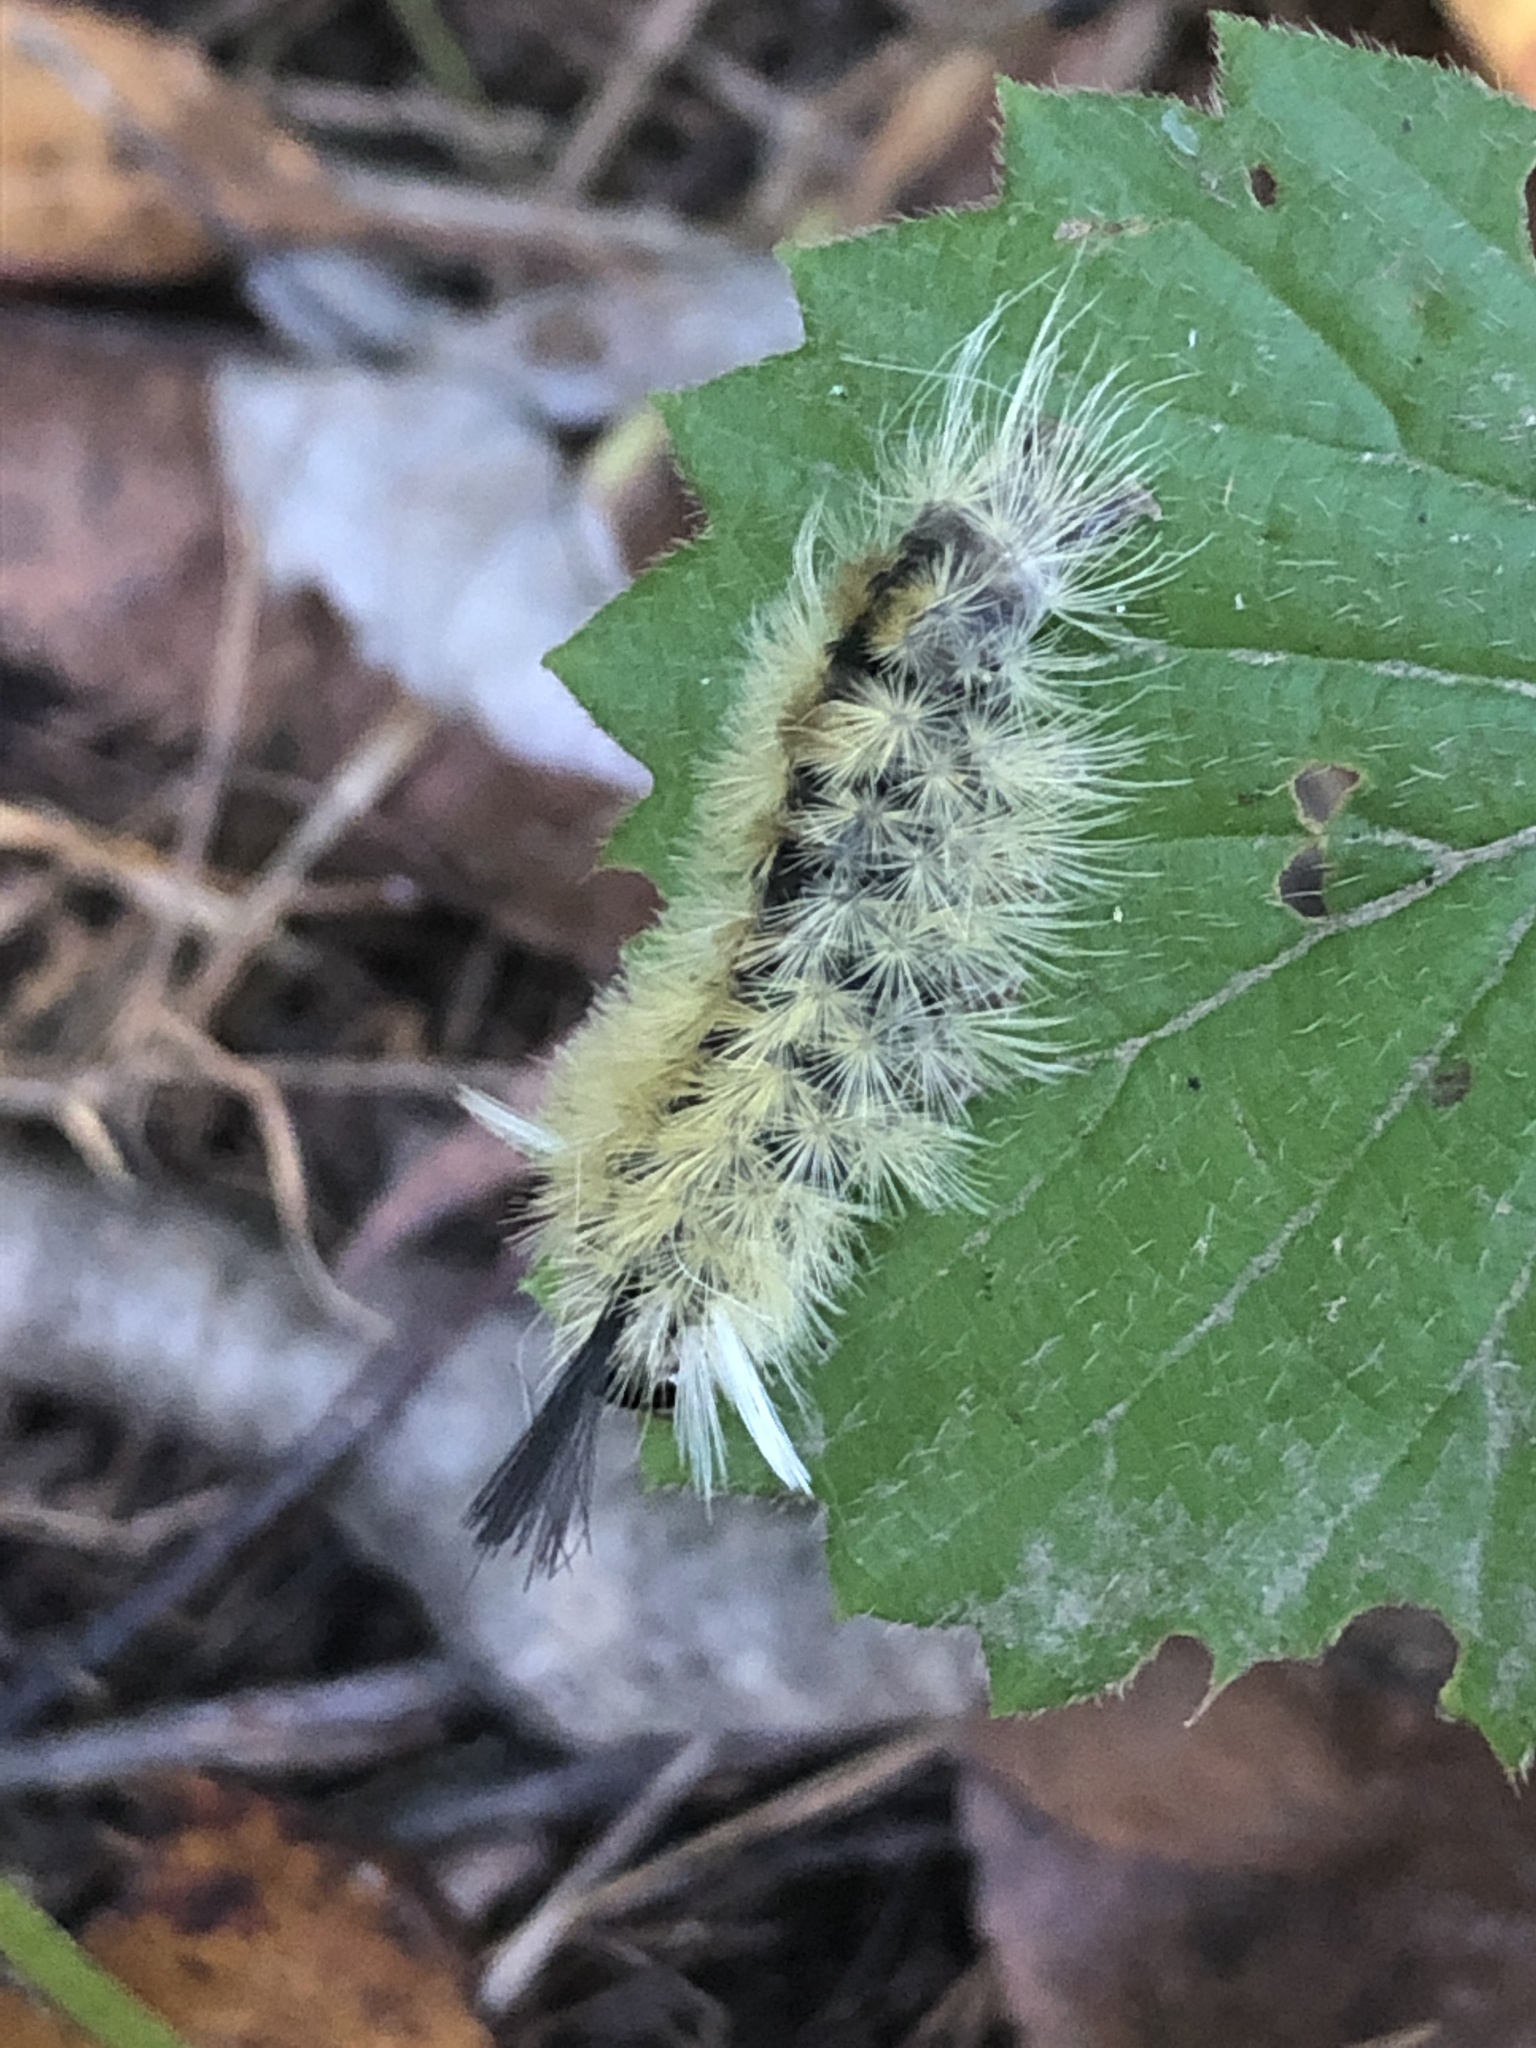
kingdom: Animalia
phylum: Arthropoda
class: Insecta
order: Lepidoptera
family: Erebidae
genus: Halysidota
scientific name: Halysidota tessellaris
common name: Banded tussock moth
